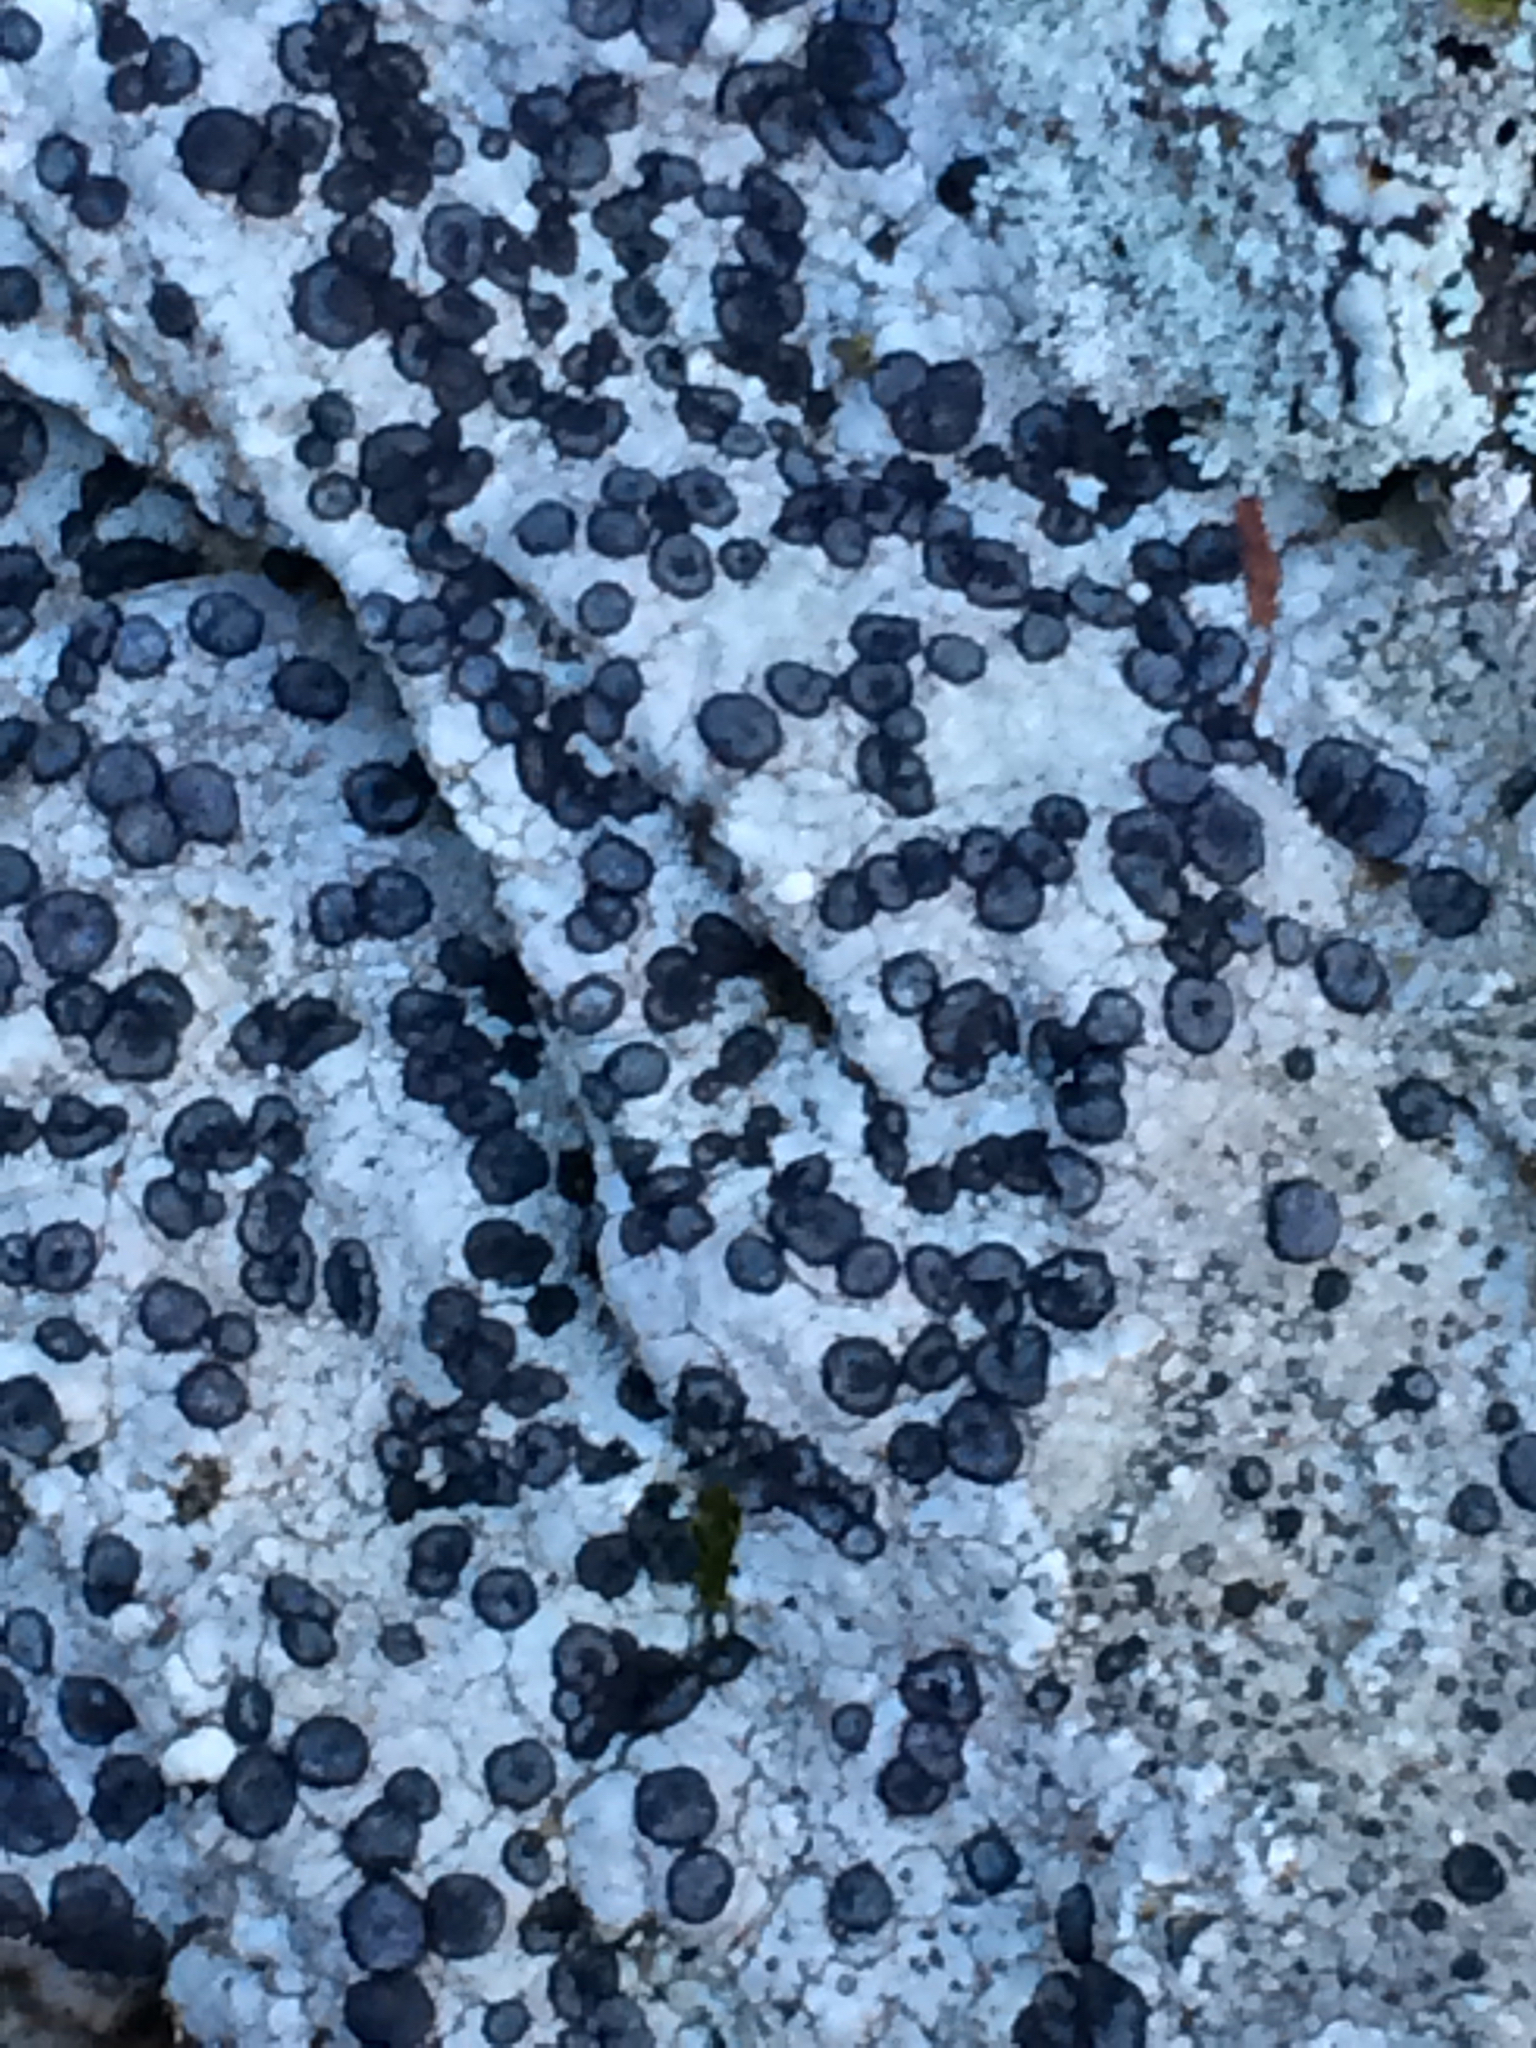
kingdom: Fungi
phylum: Ascomycota
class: Lecanoromycetes
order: Lecideales
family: Lecideaceae
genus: Porpidia
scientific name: Porpidia albocaerulescens
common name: Smokey-eyed boulder lichen
